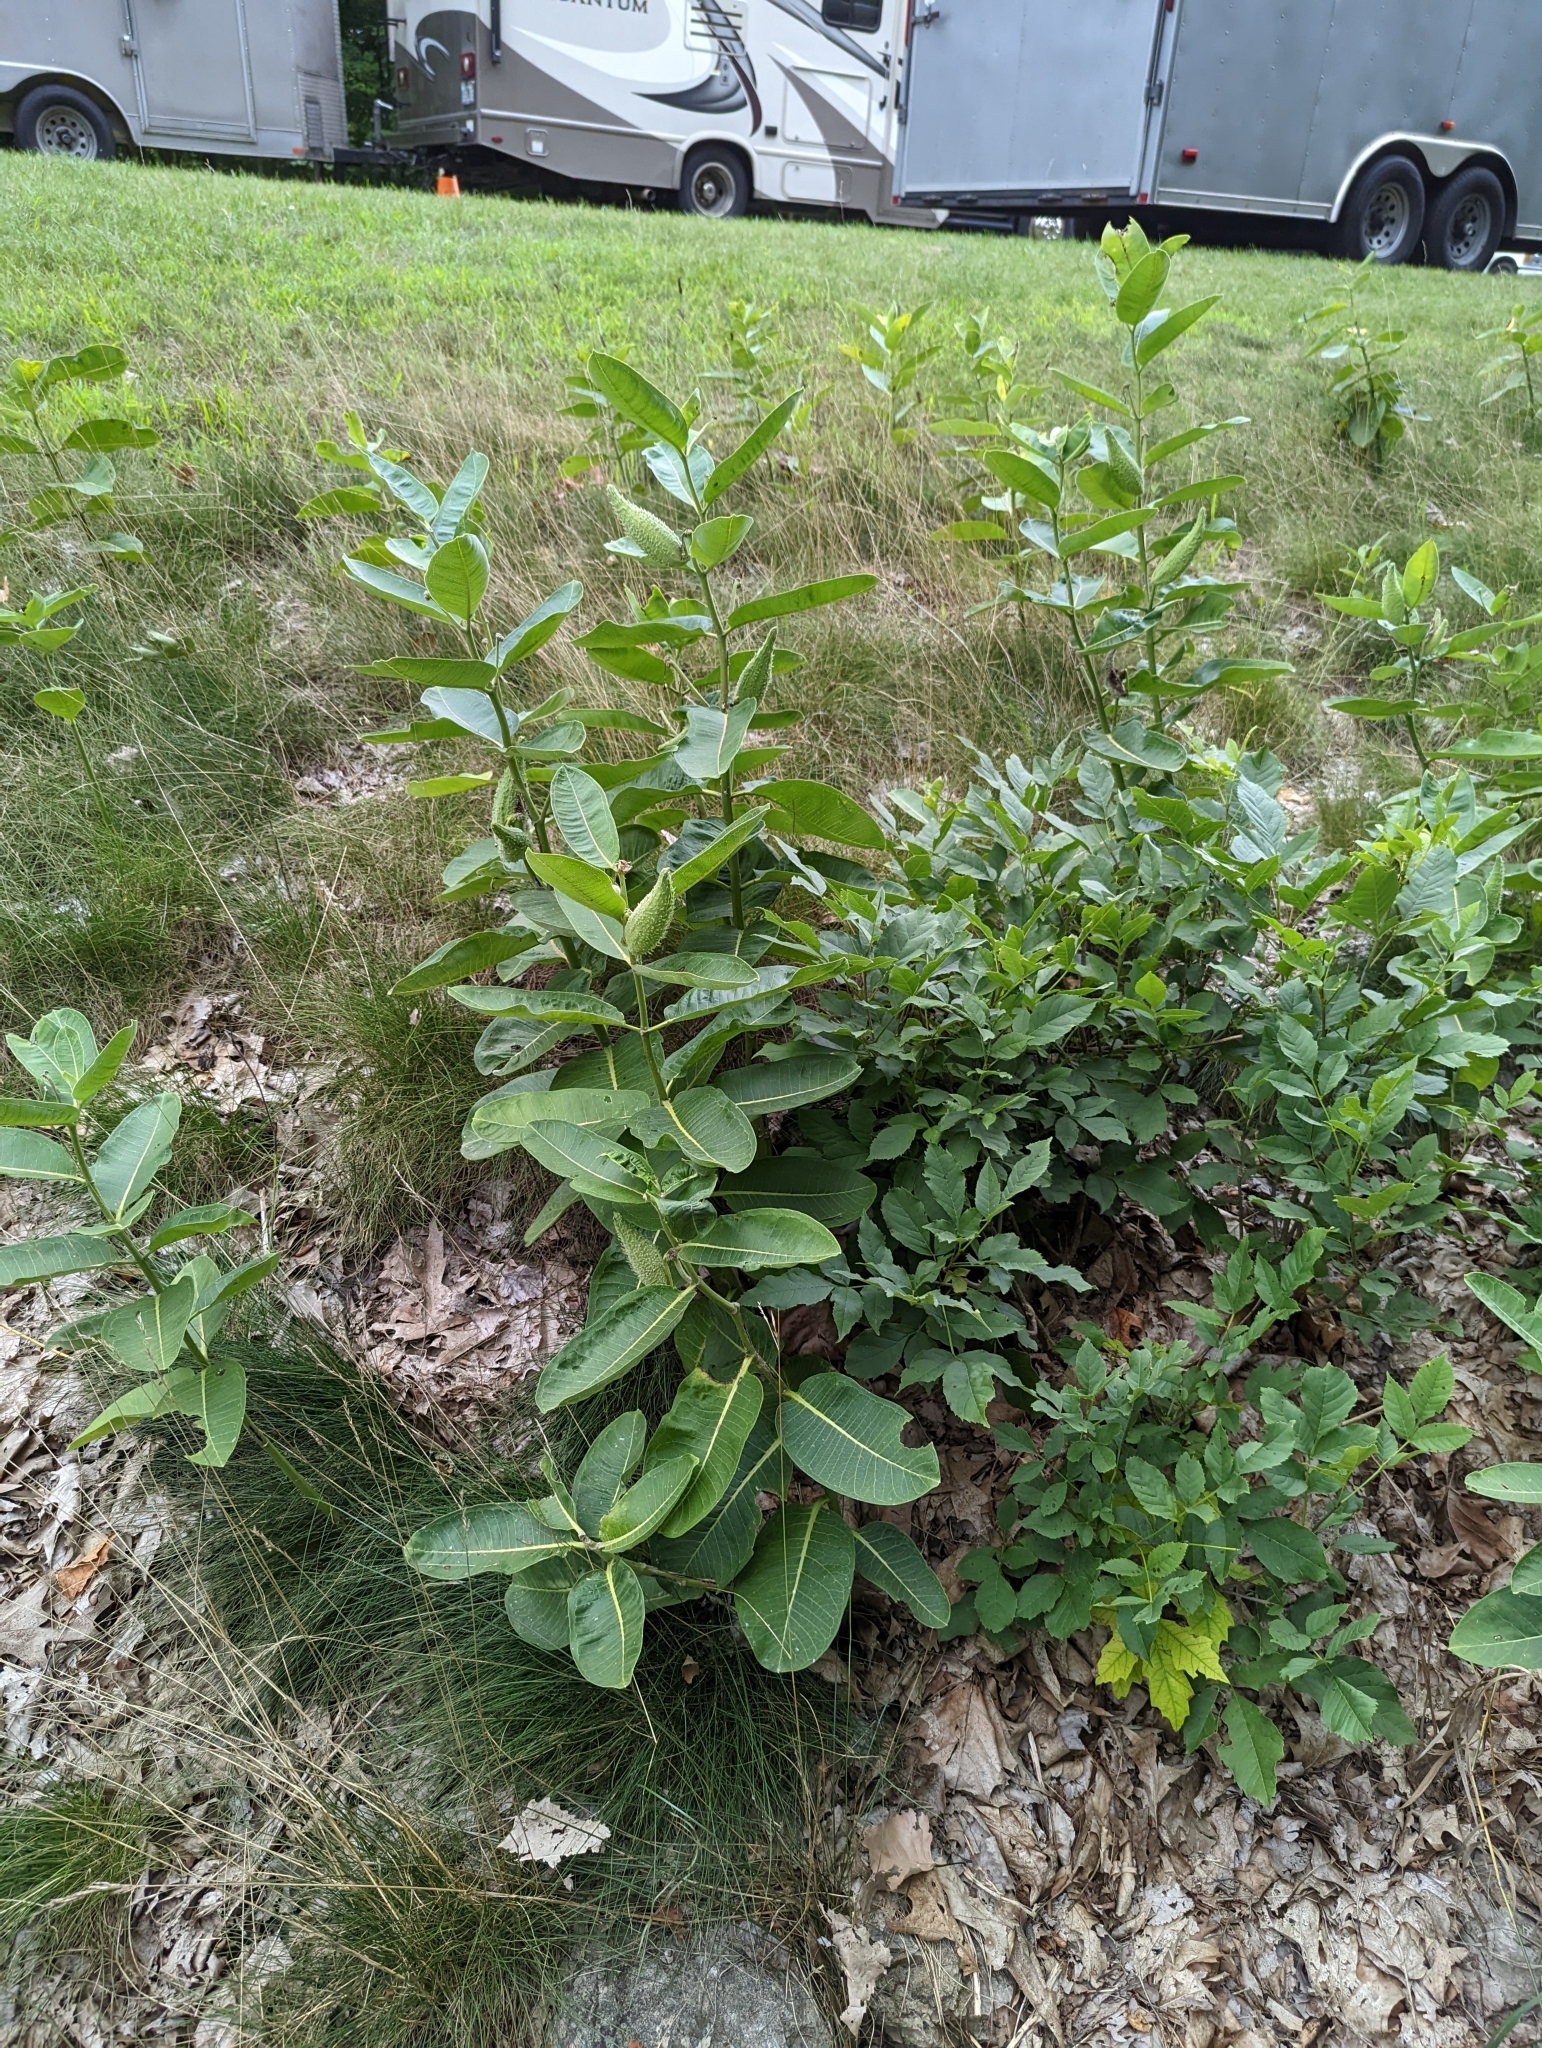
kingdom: Plantae
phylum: Tracheophyta
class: Magnoliopsida
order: Gentianales
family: Apocynaceae
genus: Asclepias
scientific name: Asclepias syriaca
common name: Common milkweed
